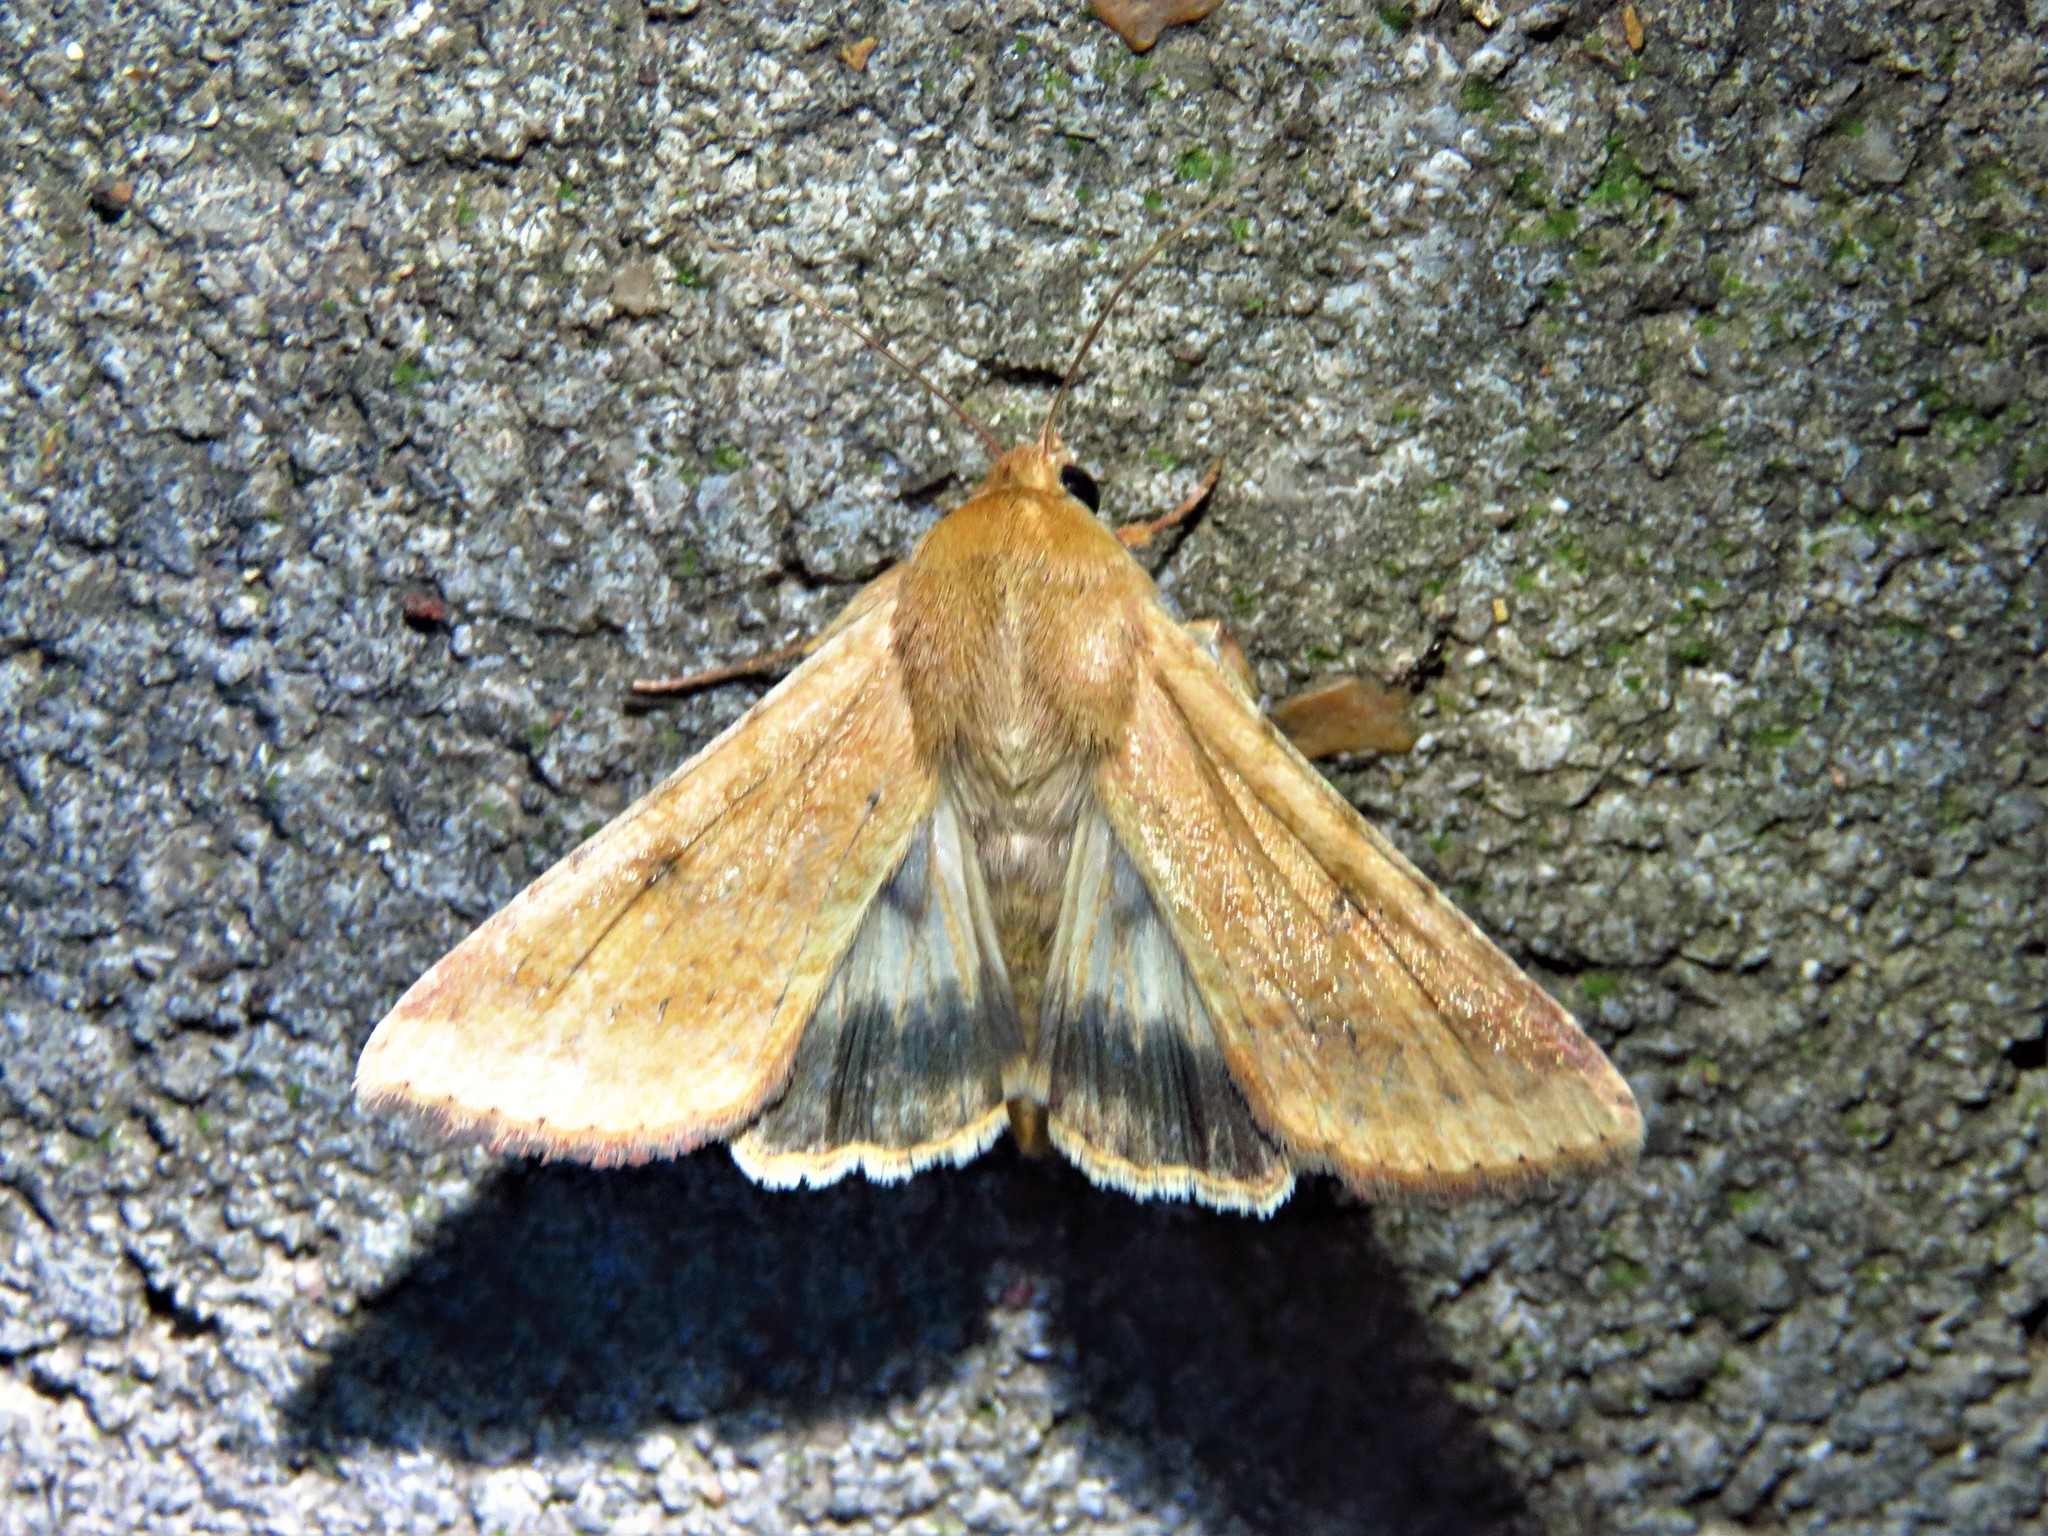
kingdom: Animalia
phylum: Arthropoda
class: Insecta
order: Lepidoptera
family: Noctuidae
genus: Helicoverpa
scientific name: Helicoverpa zea
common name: Bollworm
